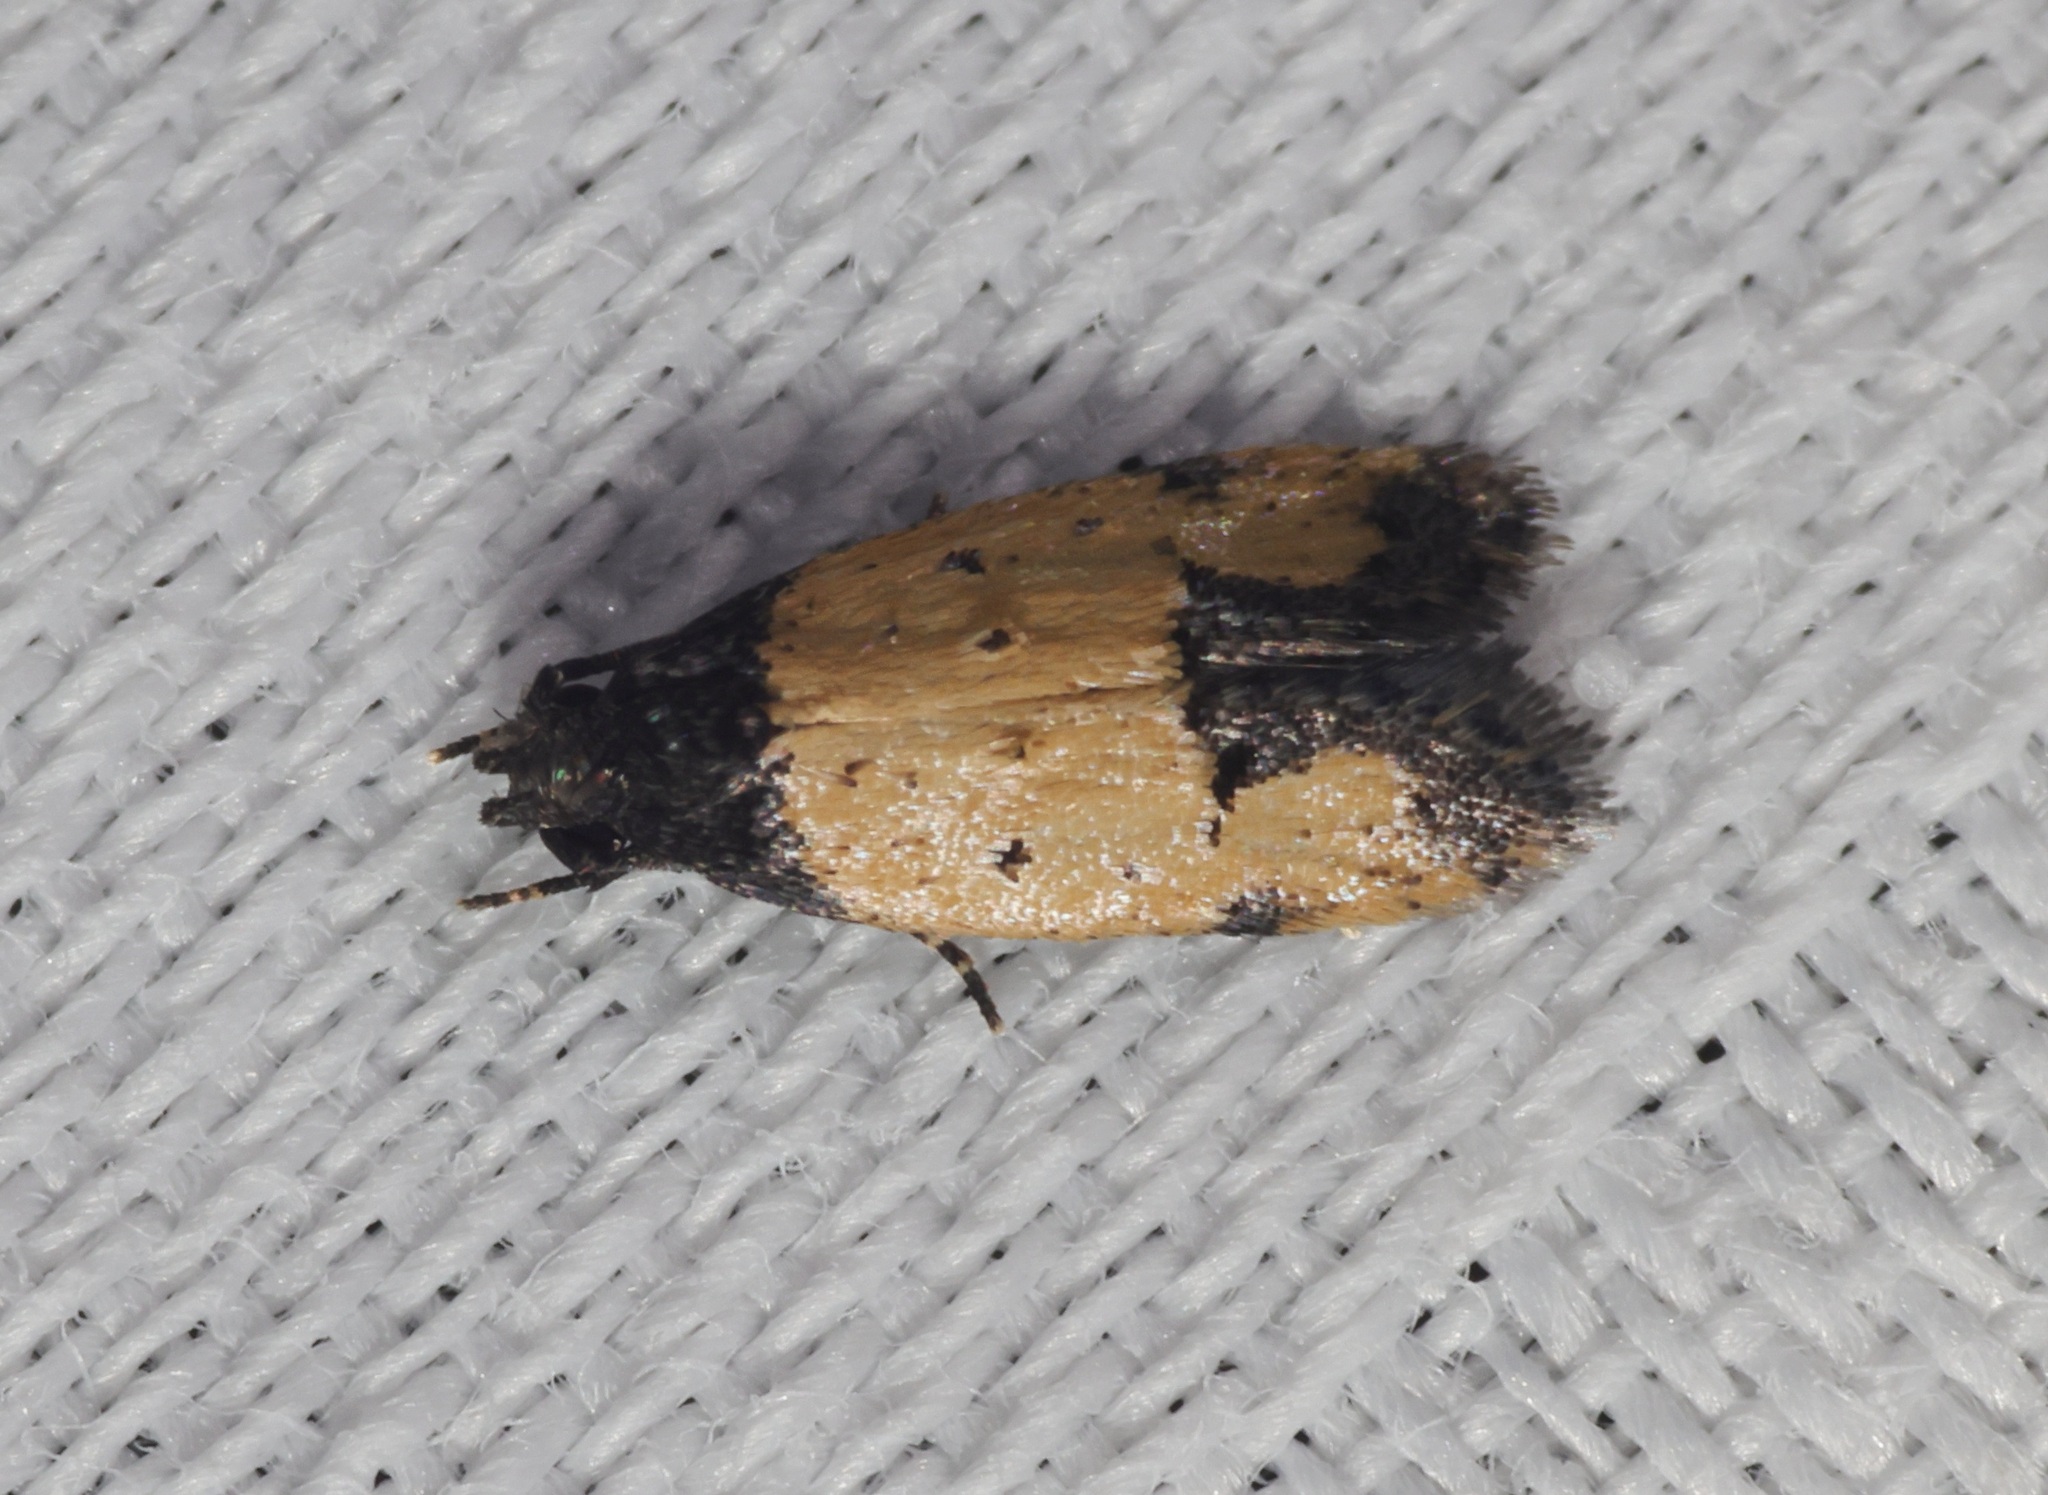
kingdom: Animalia
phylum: Arthropoda
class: Insecta
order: Lepidoptera
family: Oecophoridae
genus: Tyrolimnas
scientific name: Tyrolimnas anthraconesa
